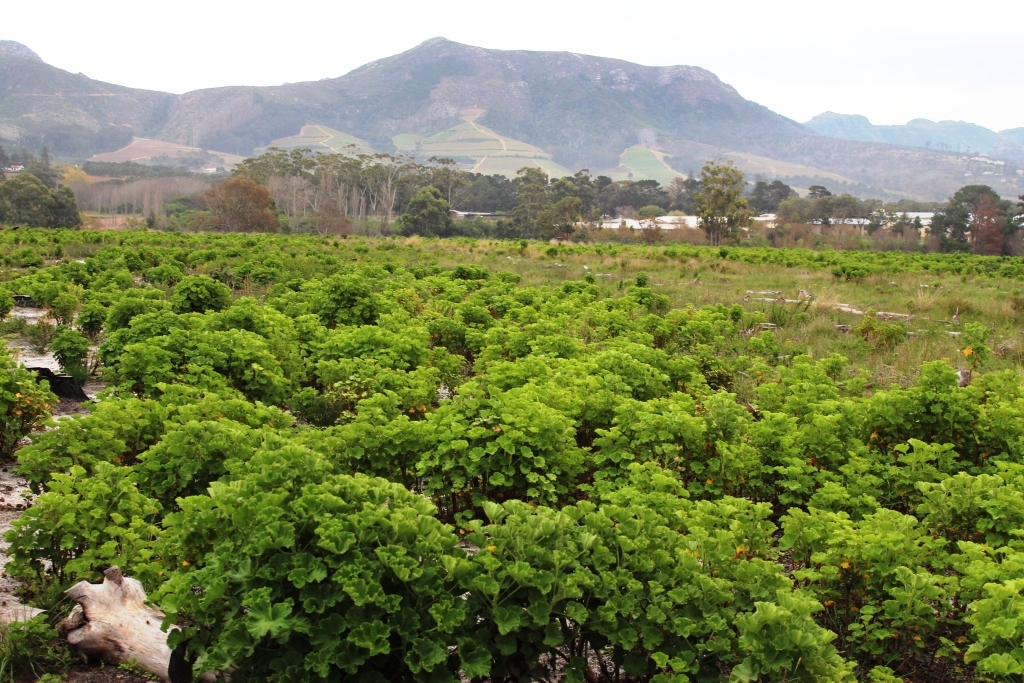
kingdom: Plantae
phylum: Tracheophyta
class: Magnoliopsida
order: Geraniales
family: Geraniaceae
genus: Pelargonium
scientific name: Pelargonium cucullatum
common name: Tree pelargonium
